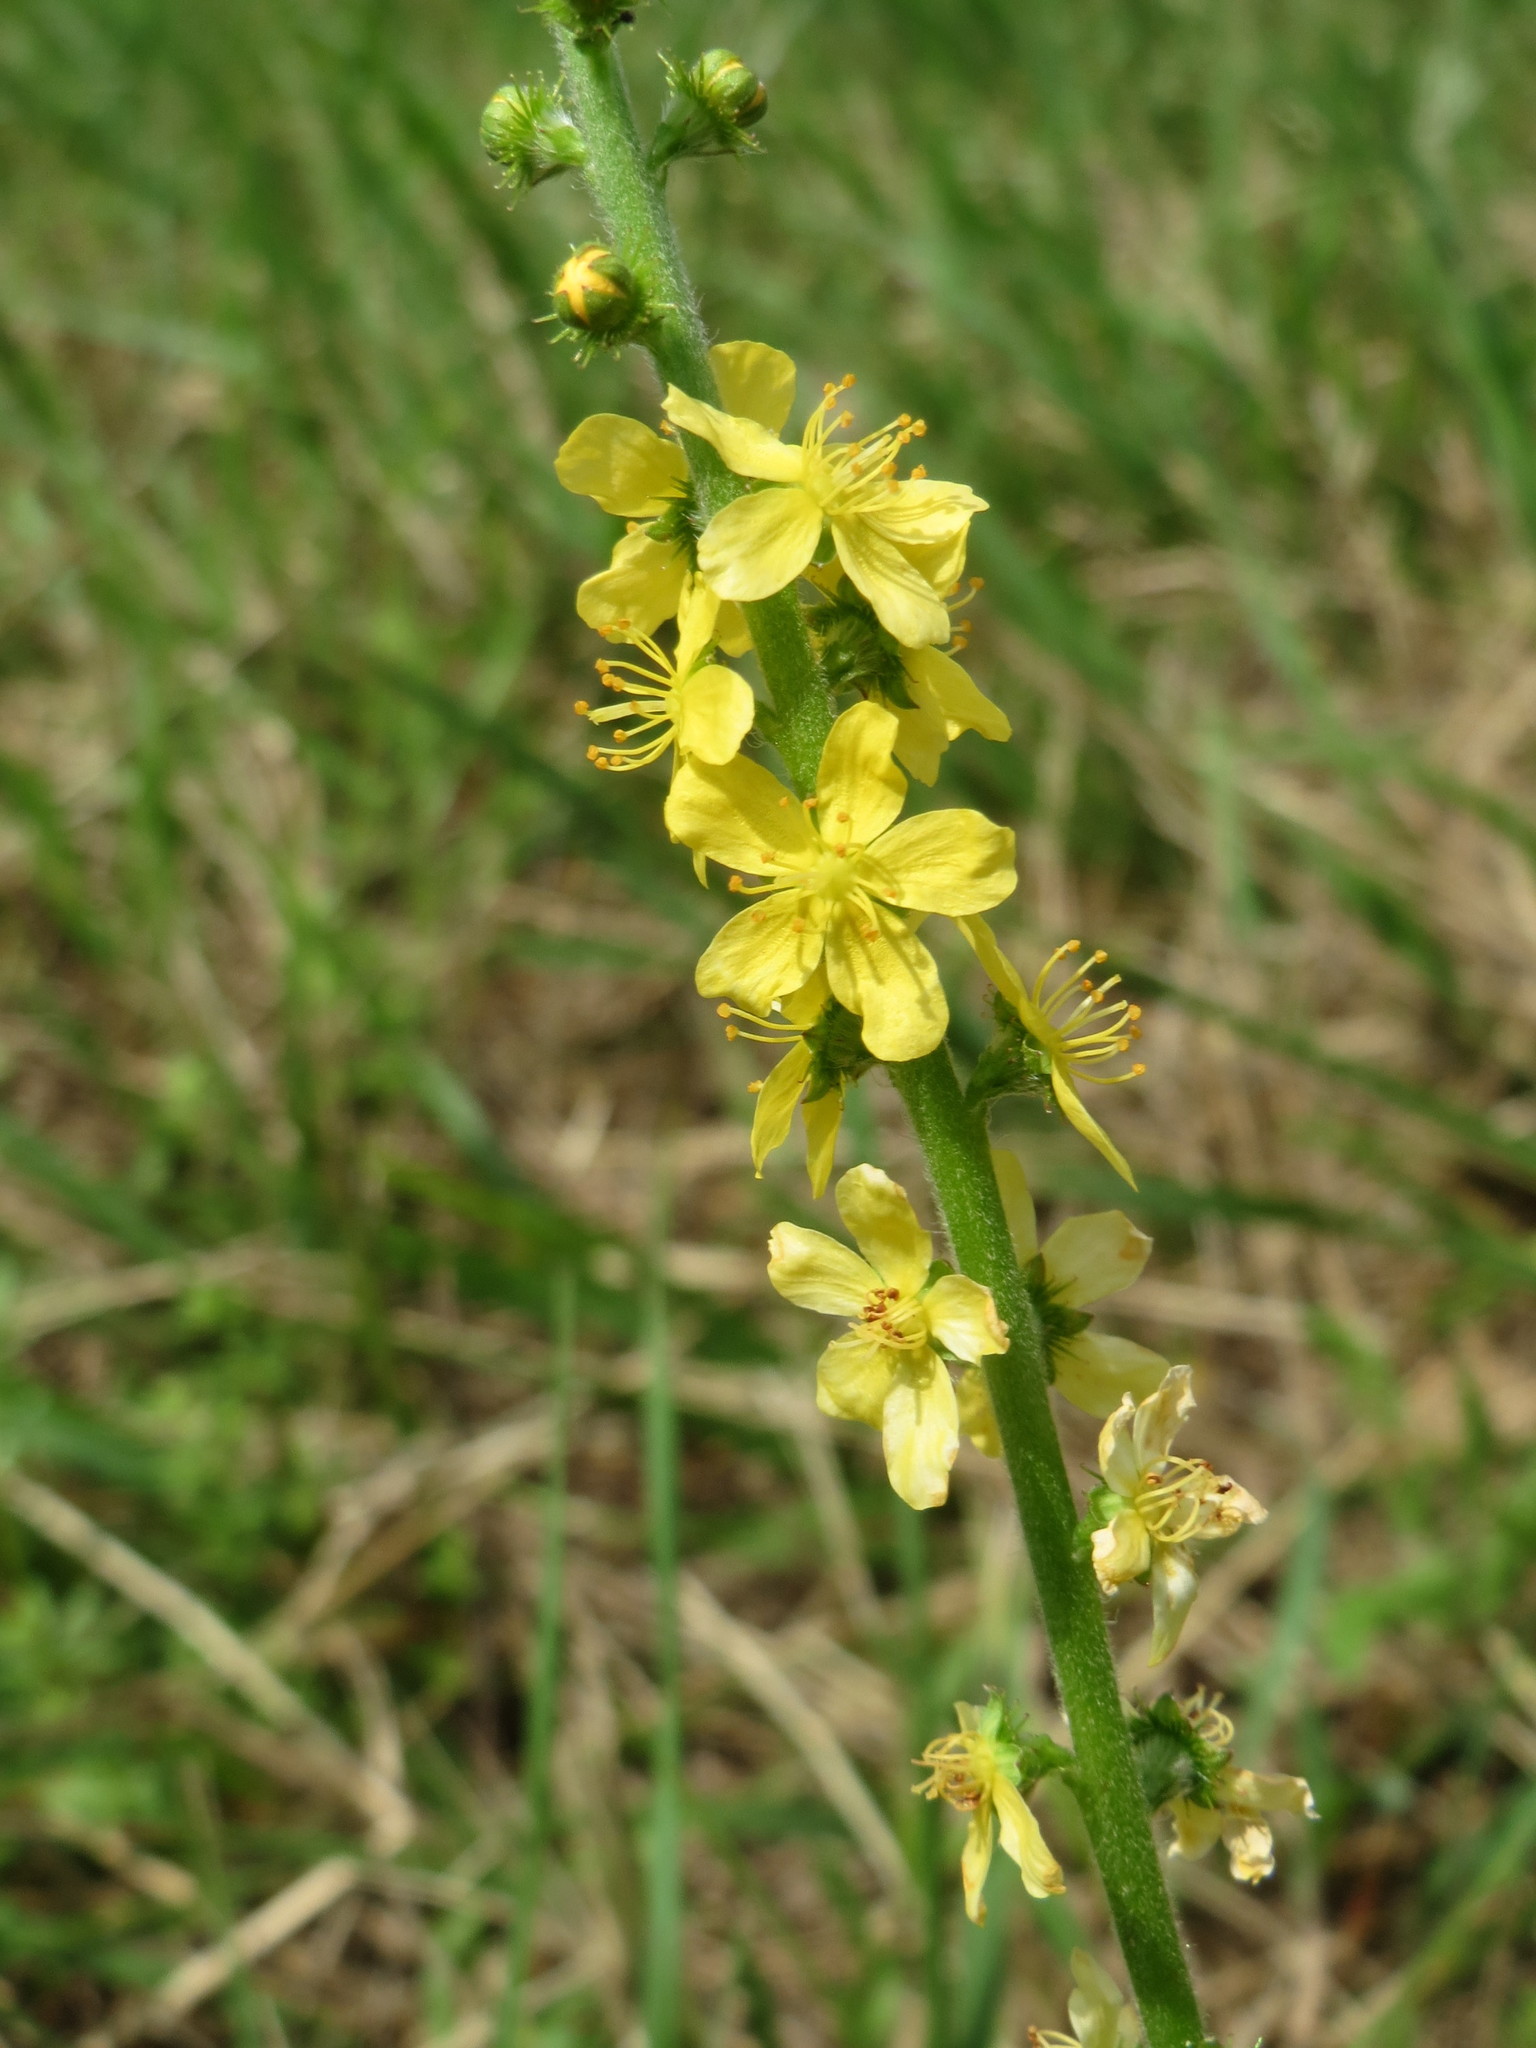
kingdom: Plantae
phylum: Tracheophyta
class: Magnoliopsida
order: Rosales
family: Rosaceae
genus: Agrimonia
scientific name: Agrimonia eupatoria
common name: Agrimony
